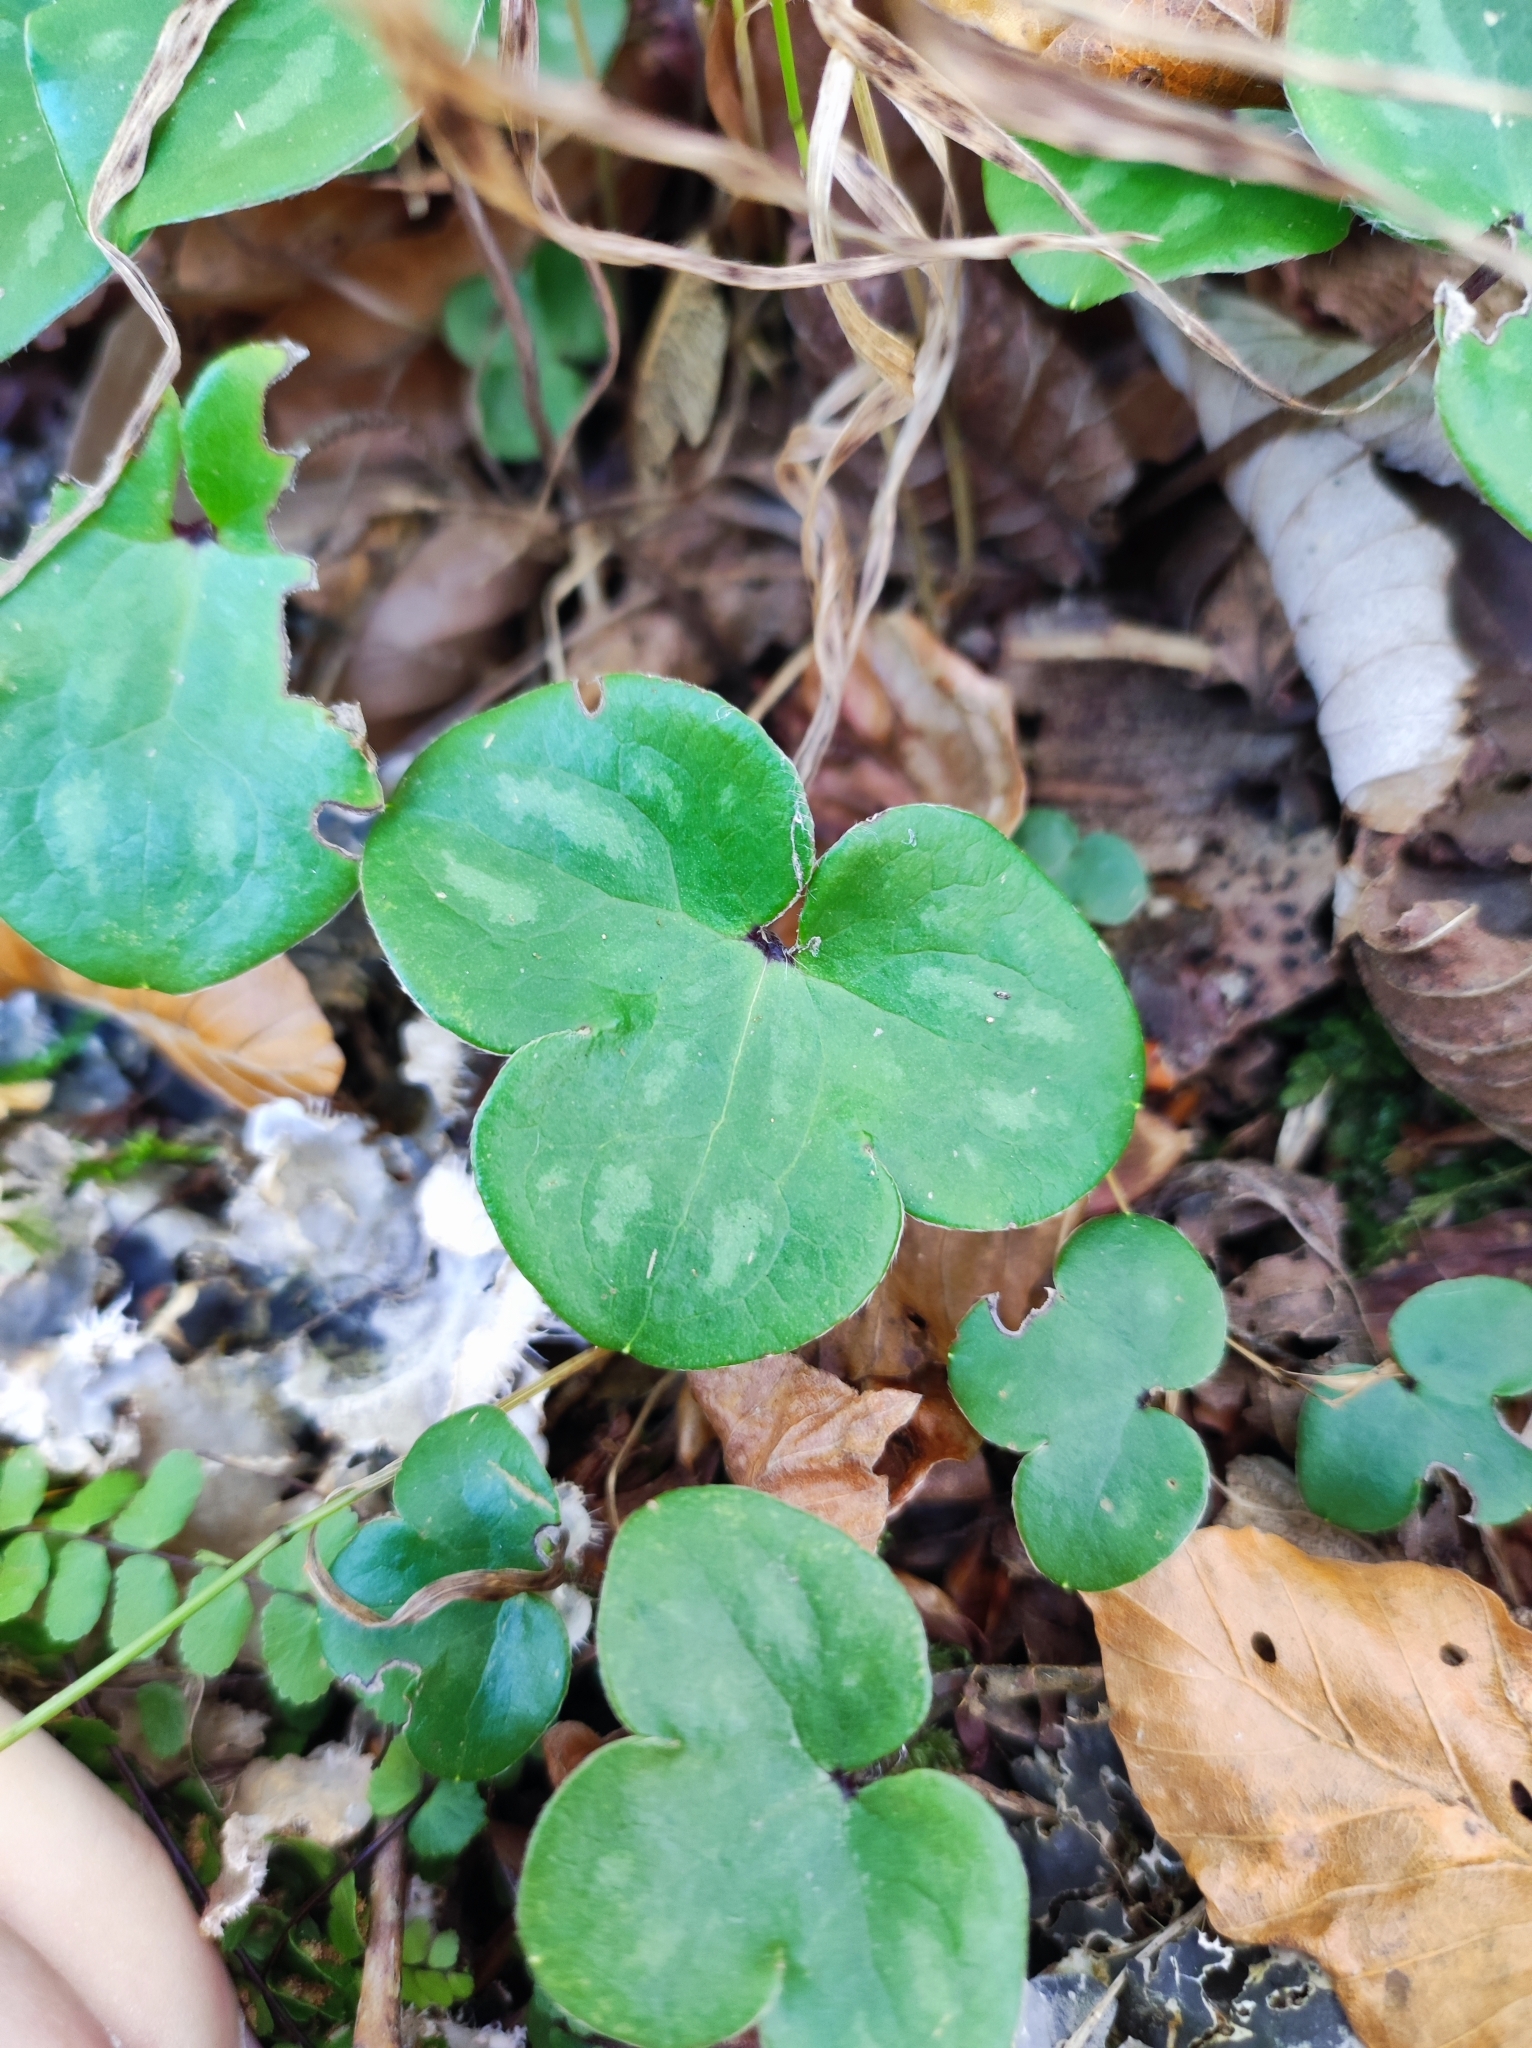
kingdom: Plantae
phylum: Tracheophyta
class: Magnoliopsida
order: Ranunculales
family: Ranunculaceae
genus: Hepatica
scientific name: Hepatica nobilis
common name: Liverleaf
